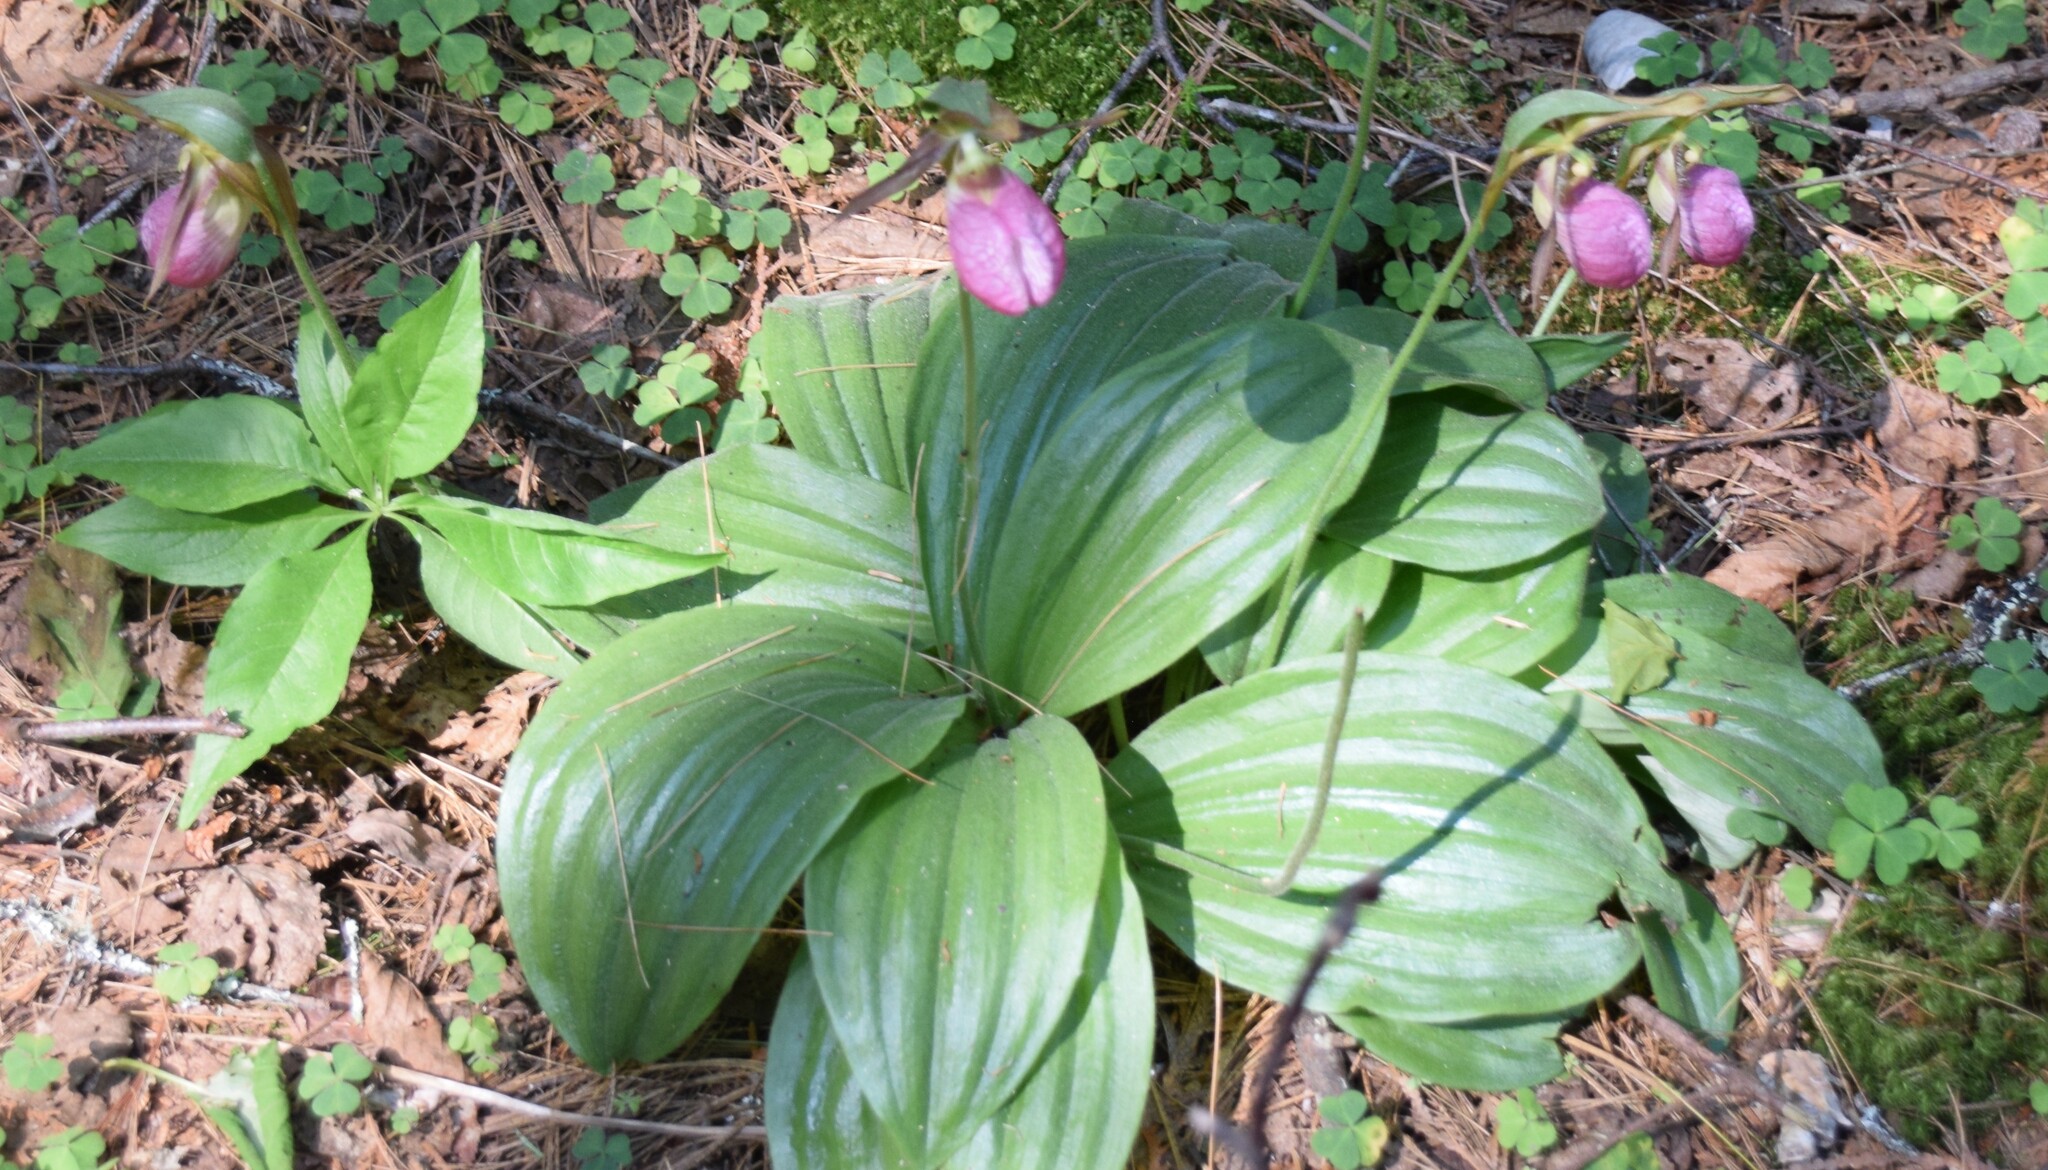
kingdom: Plantae
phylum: Tracheophyta
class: Liliopsida
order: Asparagales
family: Orchidaceae
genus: Cypripedium
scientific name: Cypripedium acaule
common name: Pink lady's-slipper
